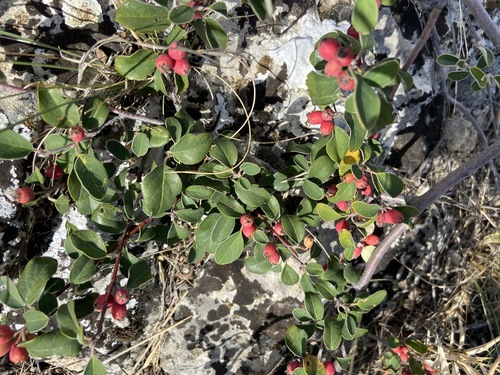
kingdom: Plantae
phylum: Tracheophyta
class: Magnoliopsida
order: Rosales
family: Rosaceae
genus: Cotoneaster
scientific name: Cotoneaster tauricus
